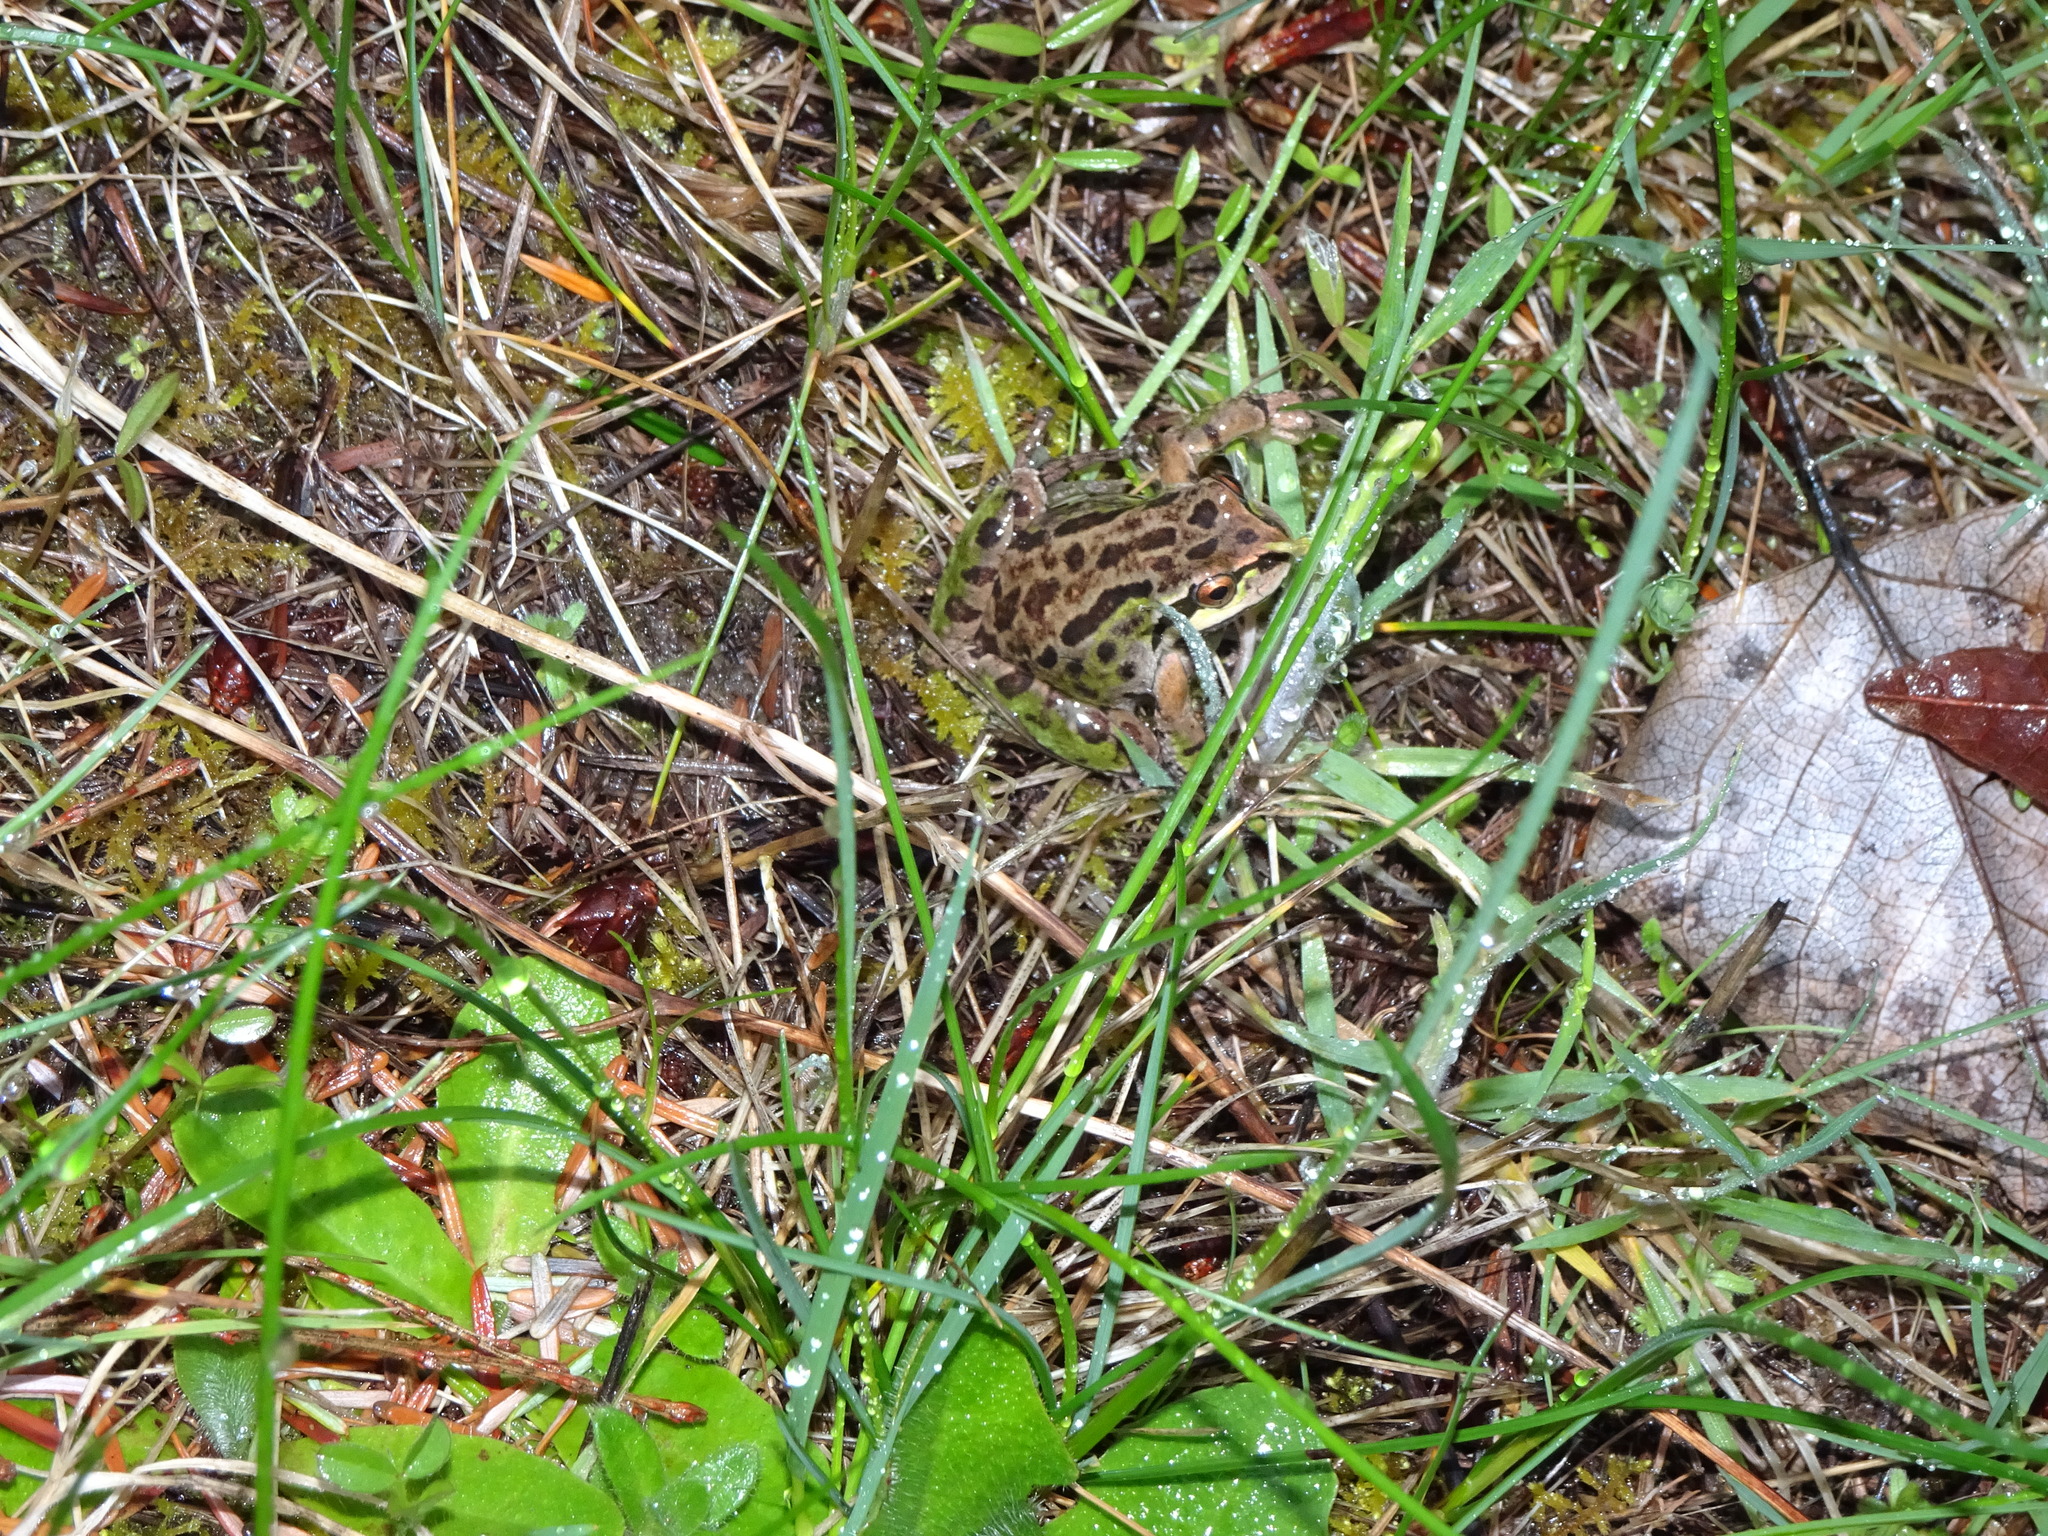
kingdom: Animalia
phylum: Chordata
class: Amphibia
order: Anura
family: Hylidae
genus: Pseudacris
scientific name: Pseudacris regilla
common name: Pacific chorus frog
